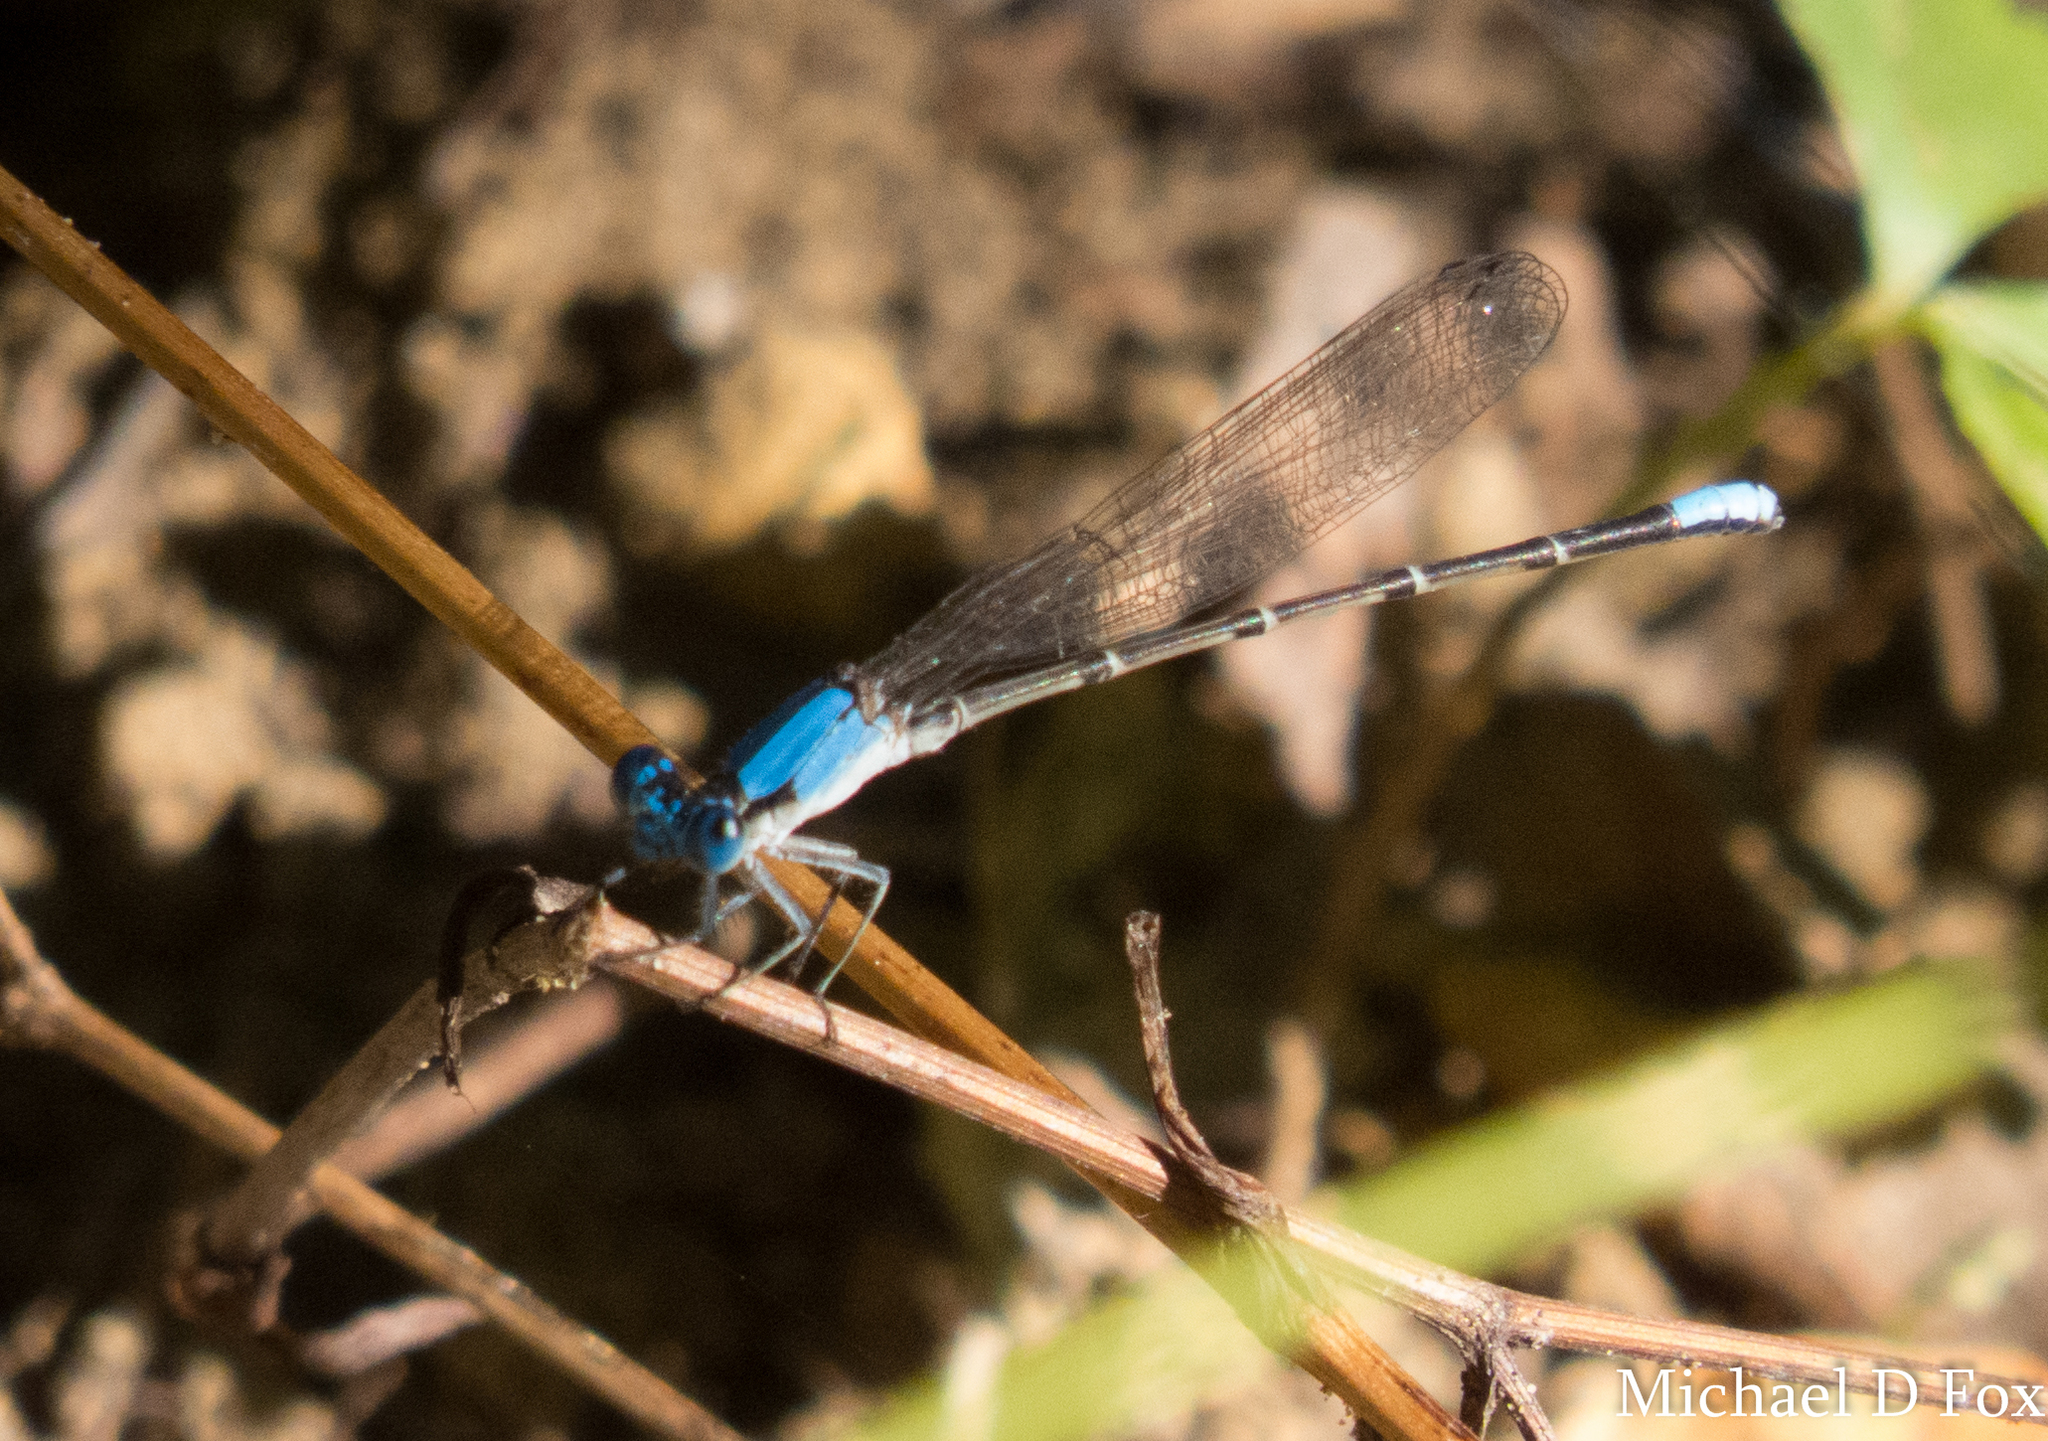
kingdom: Animalia
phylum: Arthropoda
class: Insecta
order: Odonata
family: Coenagrionidae
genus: Argia
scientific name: Argia apicalis
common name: Blue-fronted dancer
